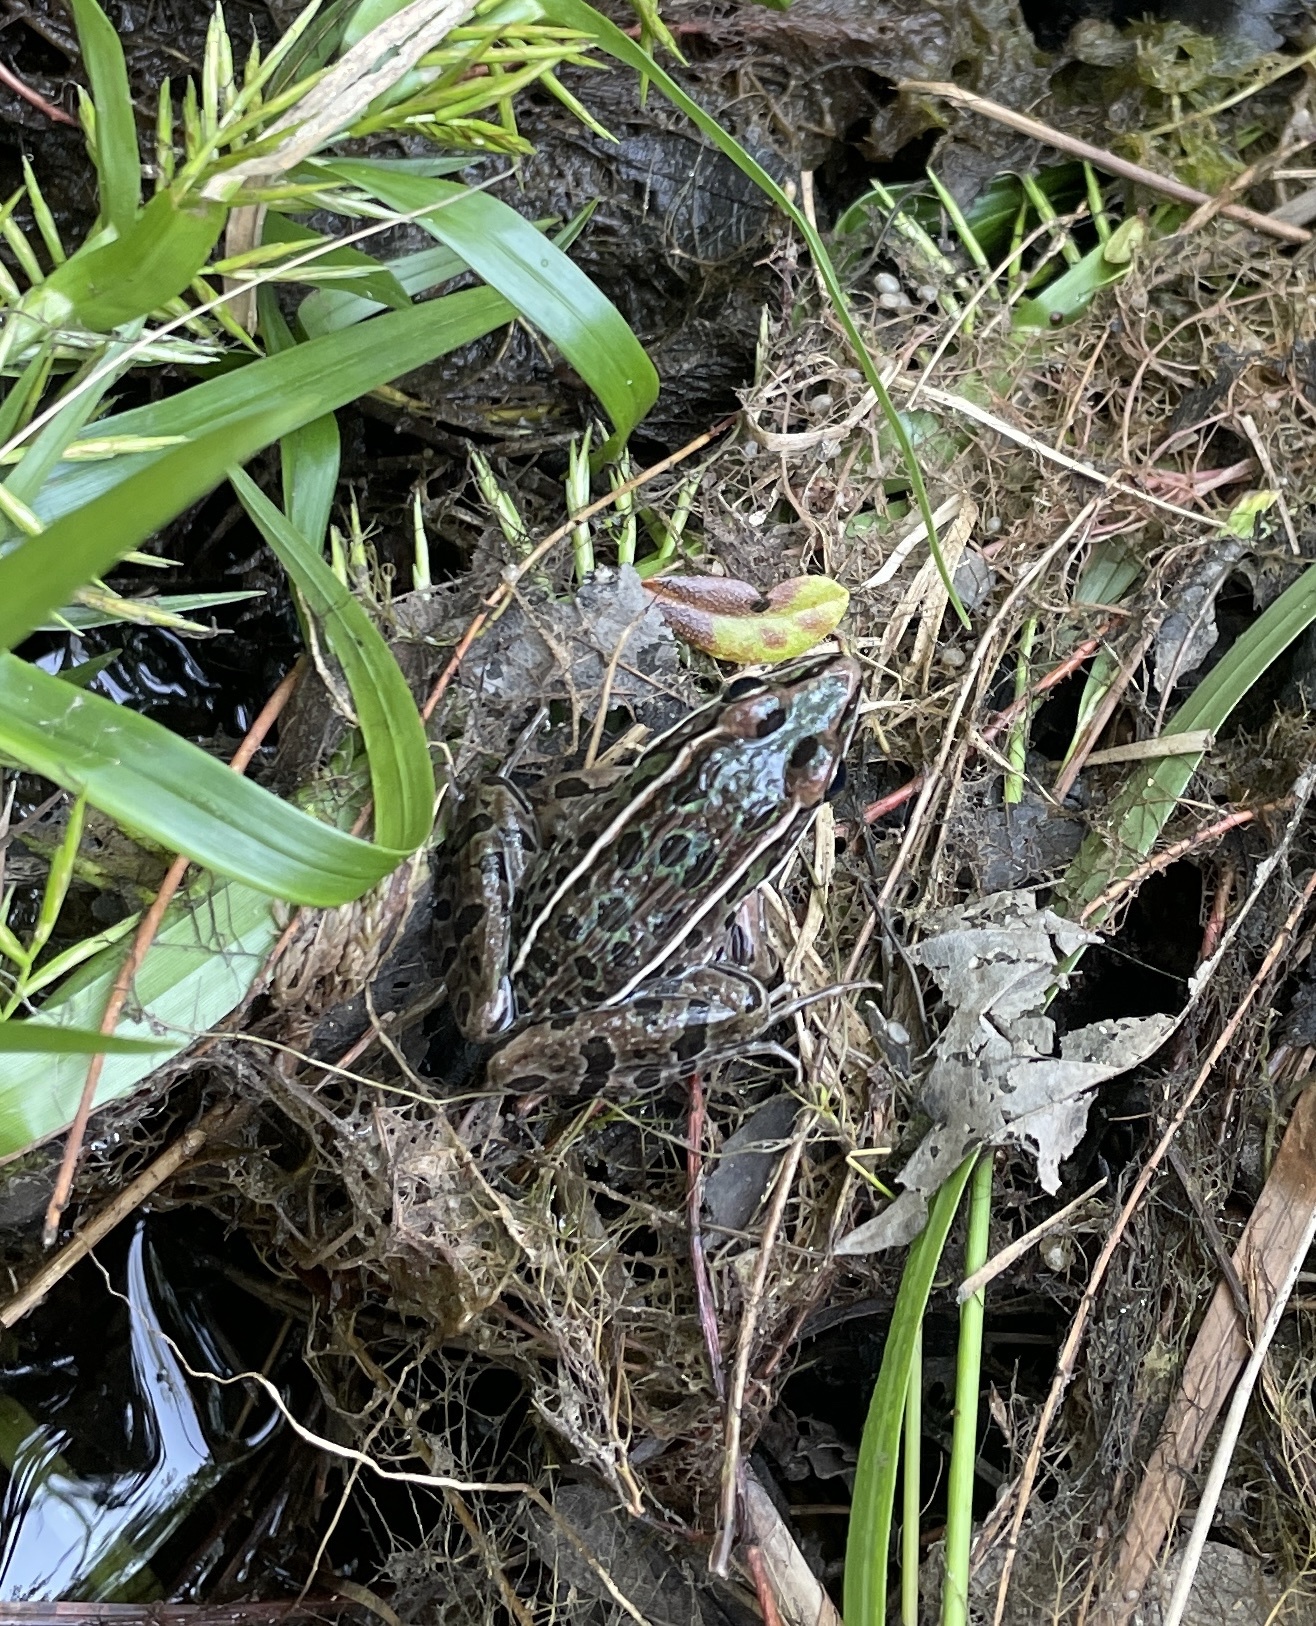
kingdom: Animalia
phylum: Chordata
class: Amphibia
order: Anura
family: Ranidae
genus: Lithobates
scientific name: Lithobates sphenocephalus
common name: Southern leopard frog
